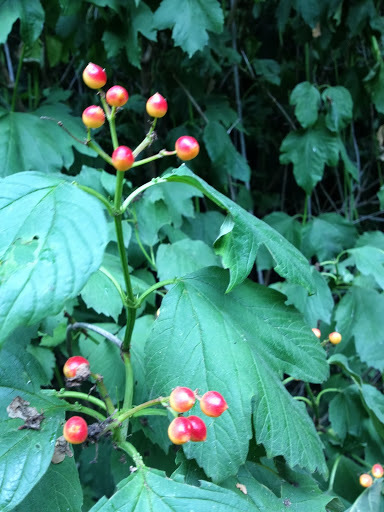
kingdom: Plantae
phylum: Tracheophyta
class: Magnoliopsida
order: Dipsacales
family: Viburnaceae
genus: Viburnum
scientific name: Viburnum opulus
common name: Guelder-rose
